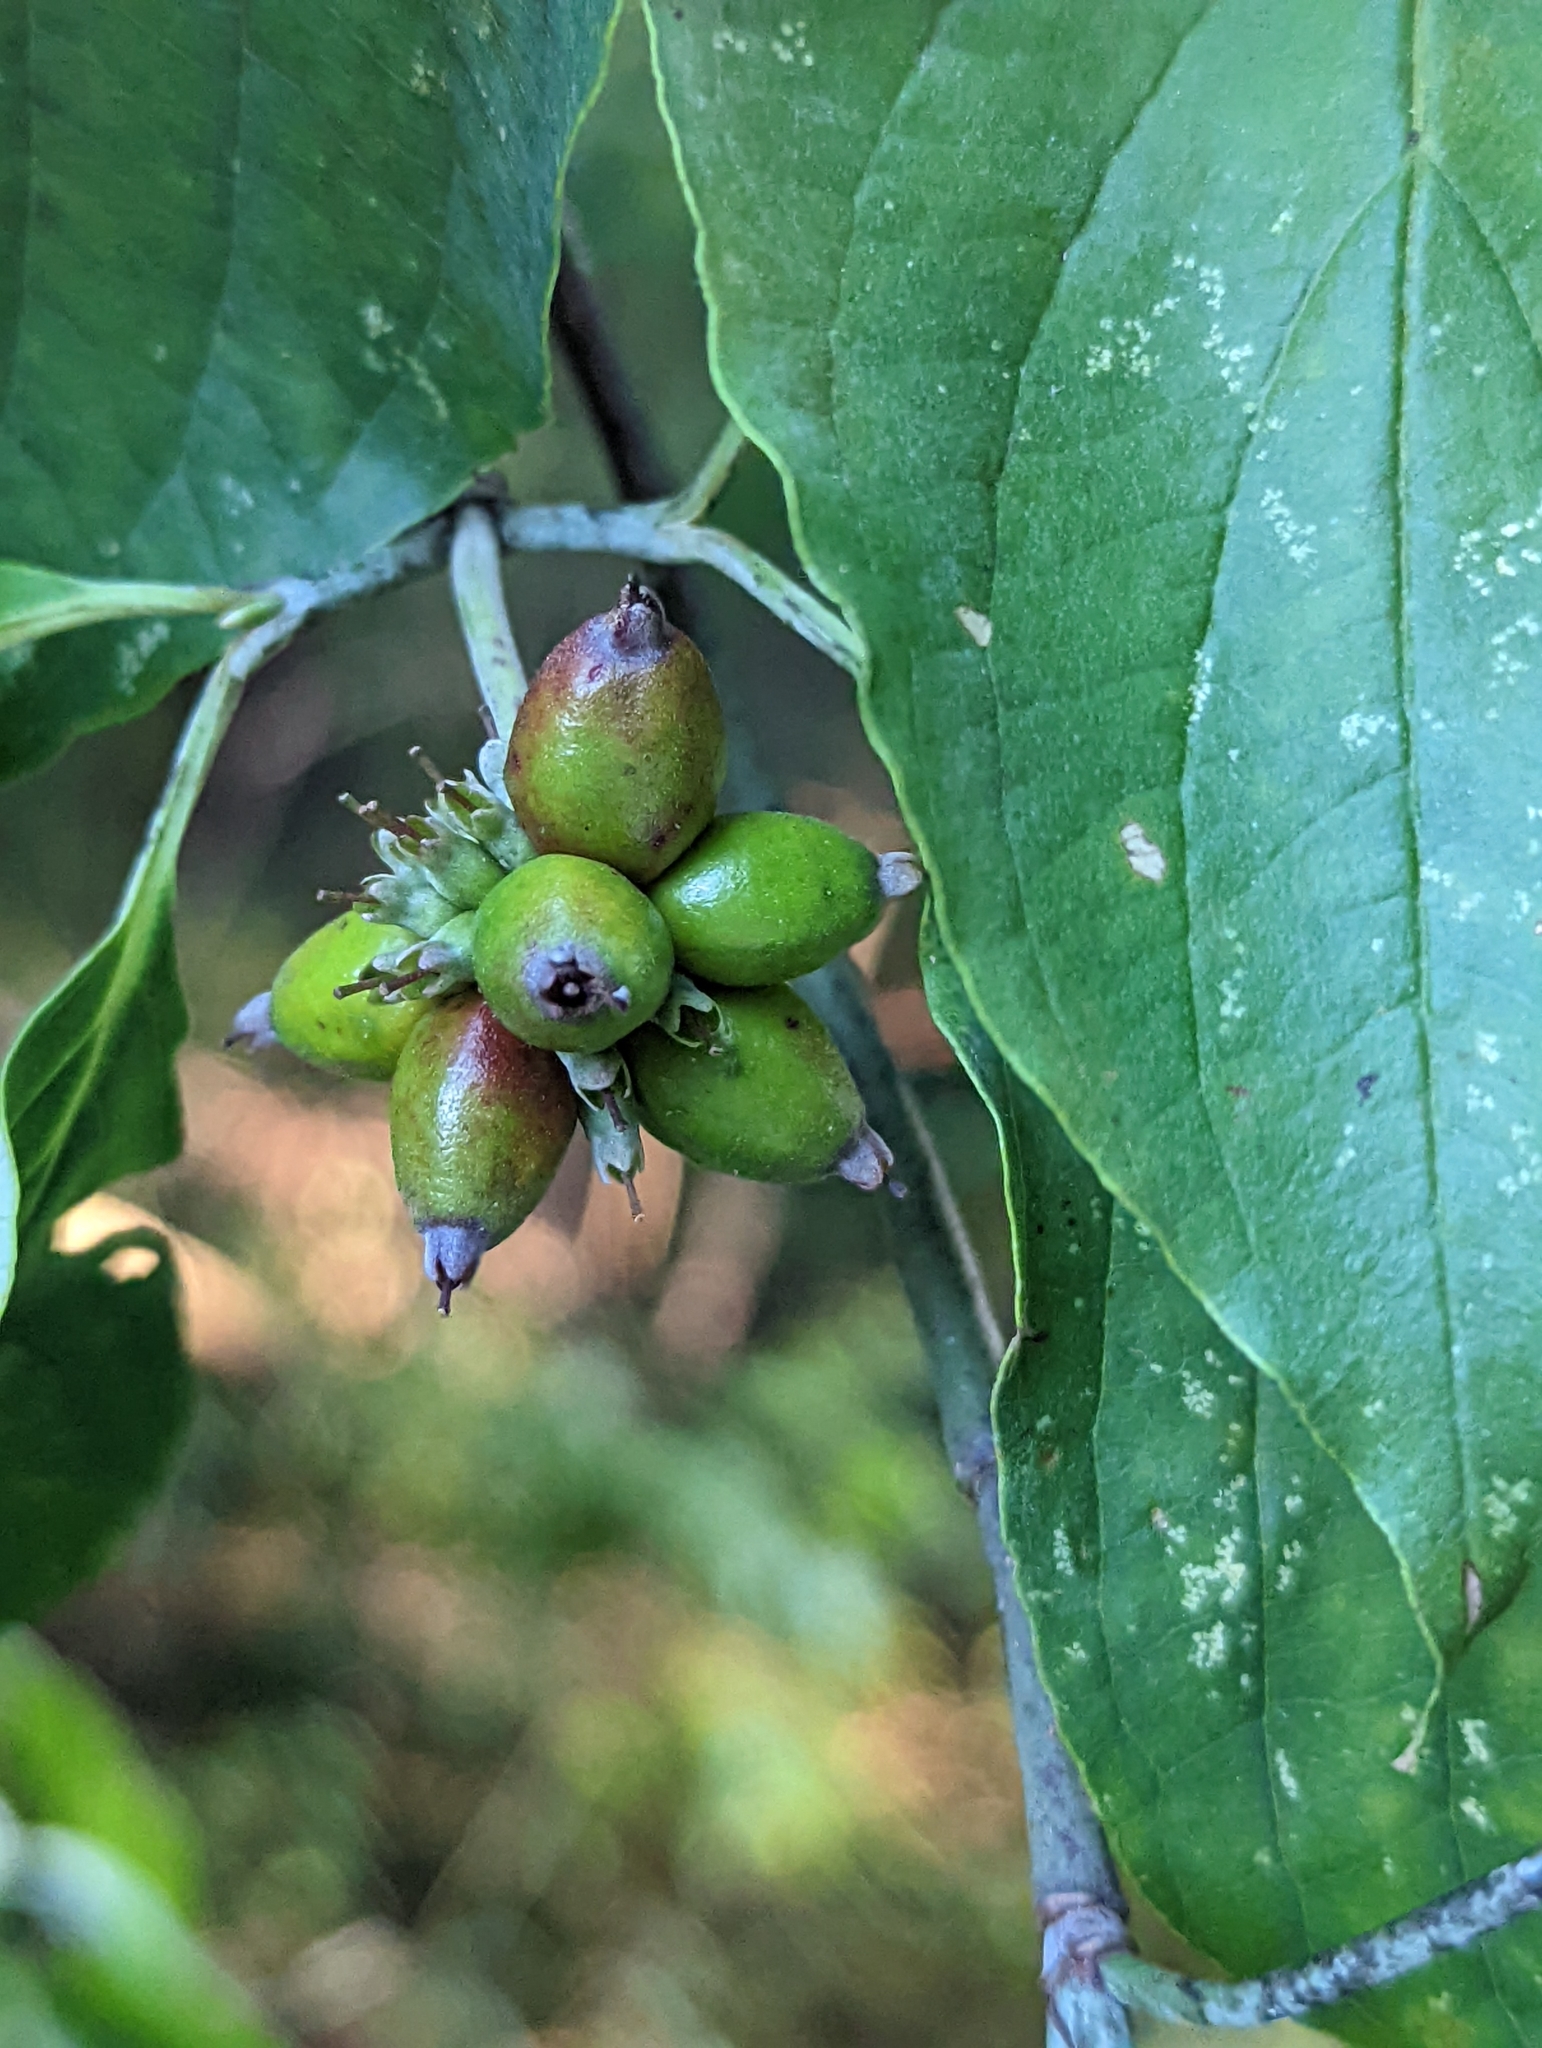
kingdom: Plantae
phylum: Tracheophyta
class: Magnoliopsida
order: Cornales
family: Cornaceae
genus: Cornus
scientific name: Cornus florida
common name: Flowering dogwood
